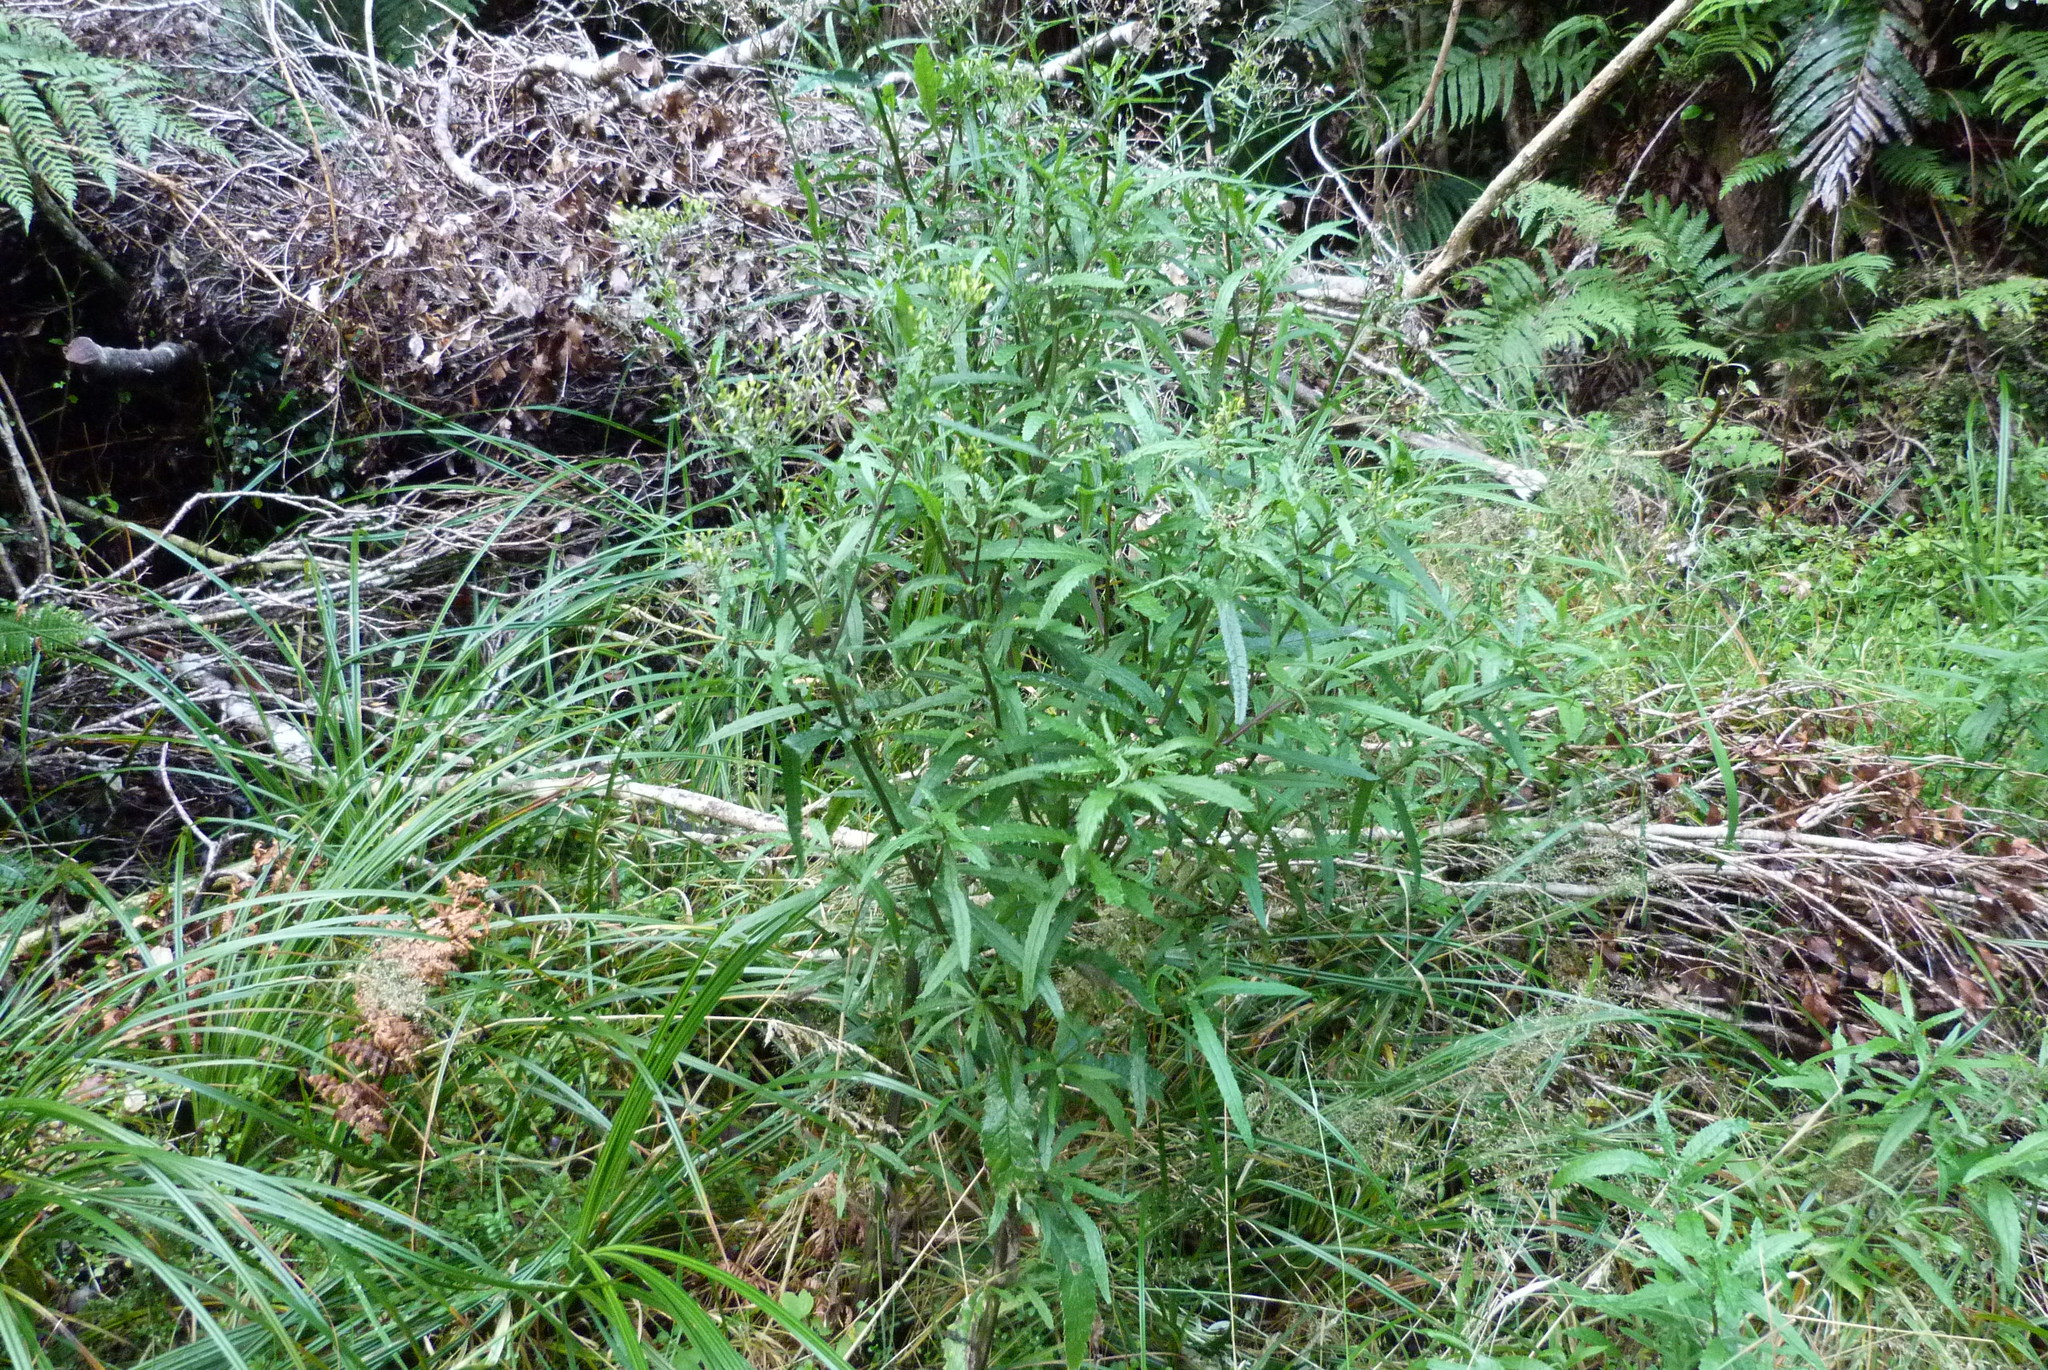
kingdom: Plantae
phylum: Tracheophyta
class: Magnoliopsida
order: Asterales
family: Asteraceae
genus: Senecio
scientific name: Senecio minimus
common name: Toothed fireweed
